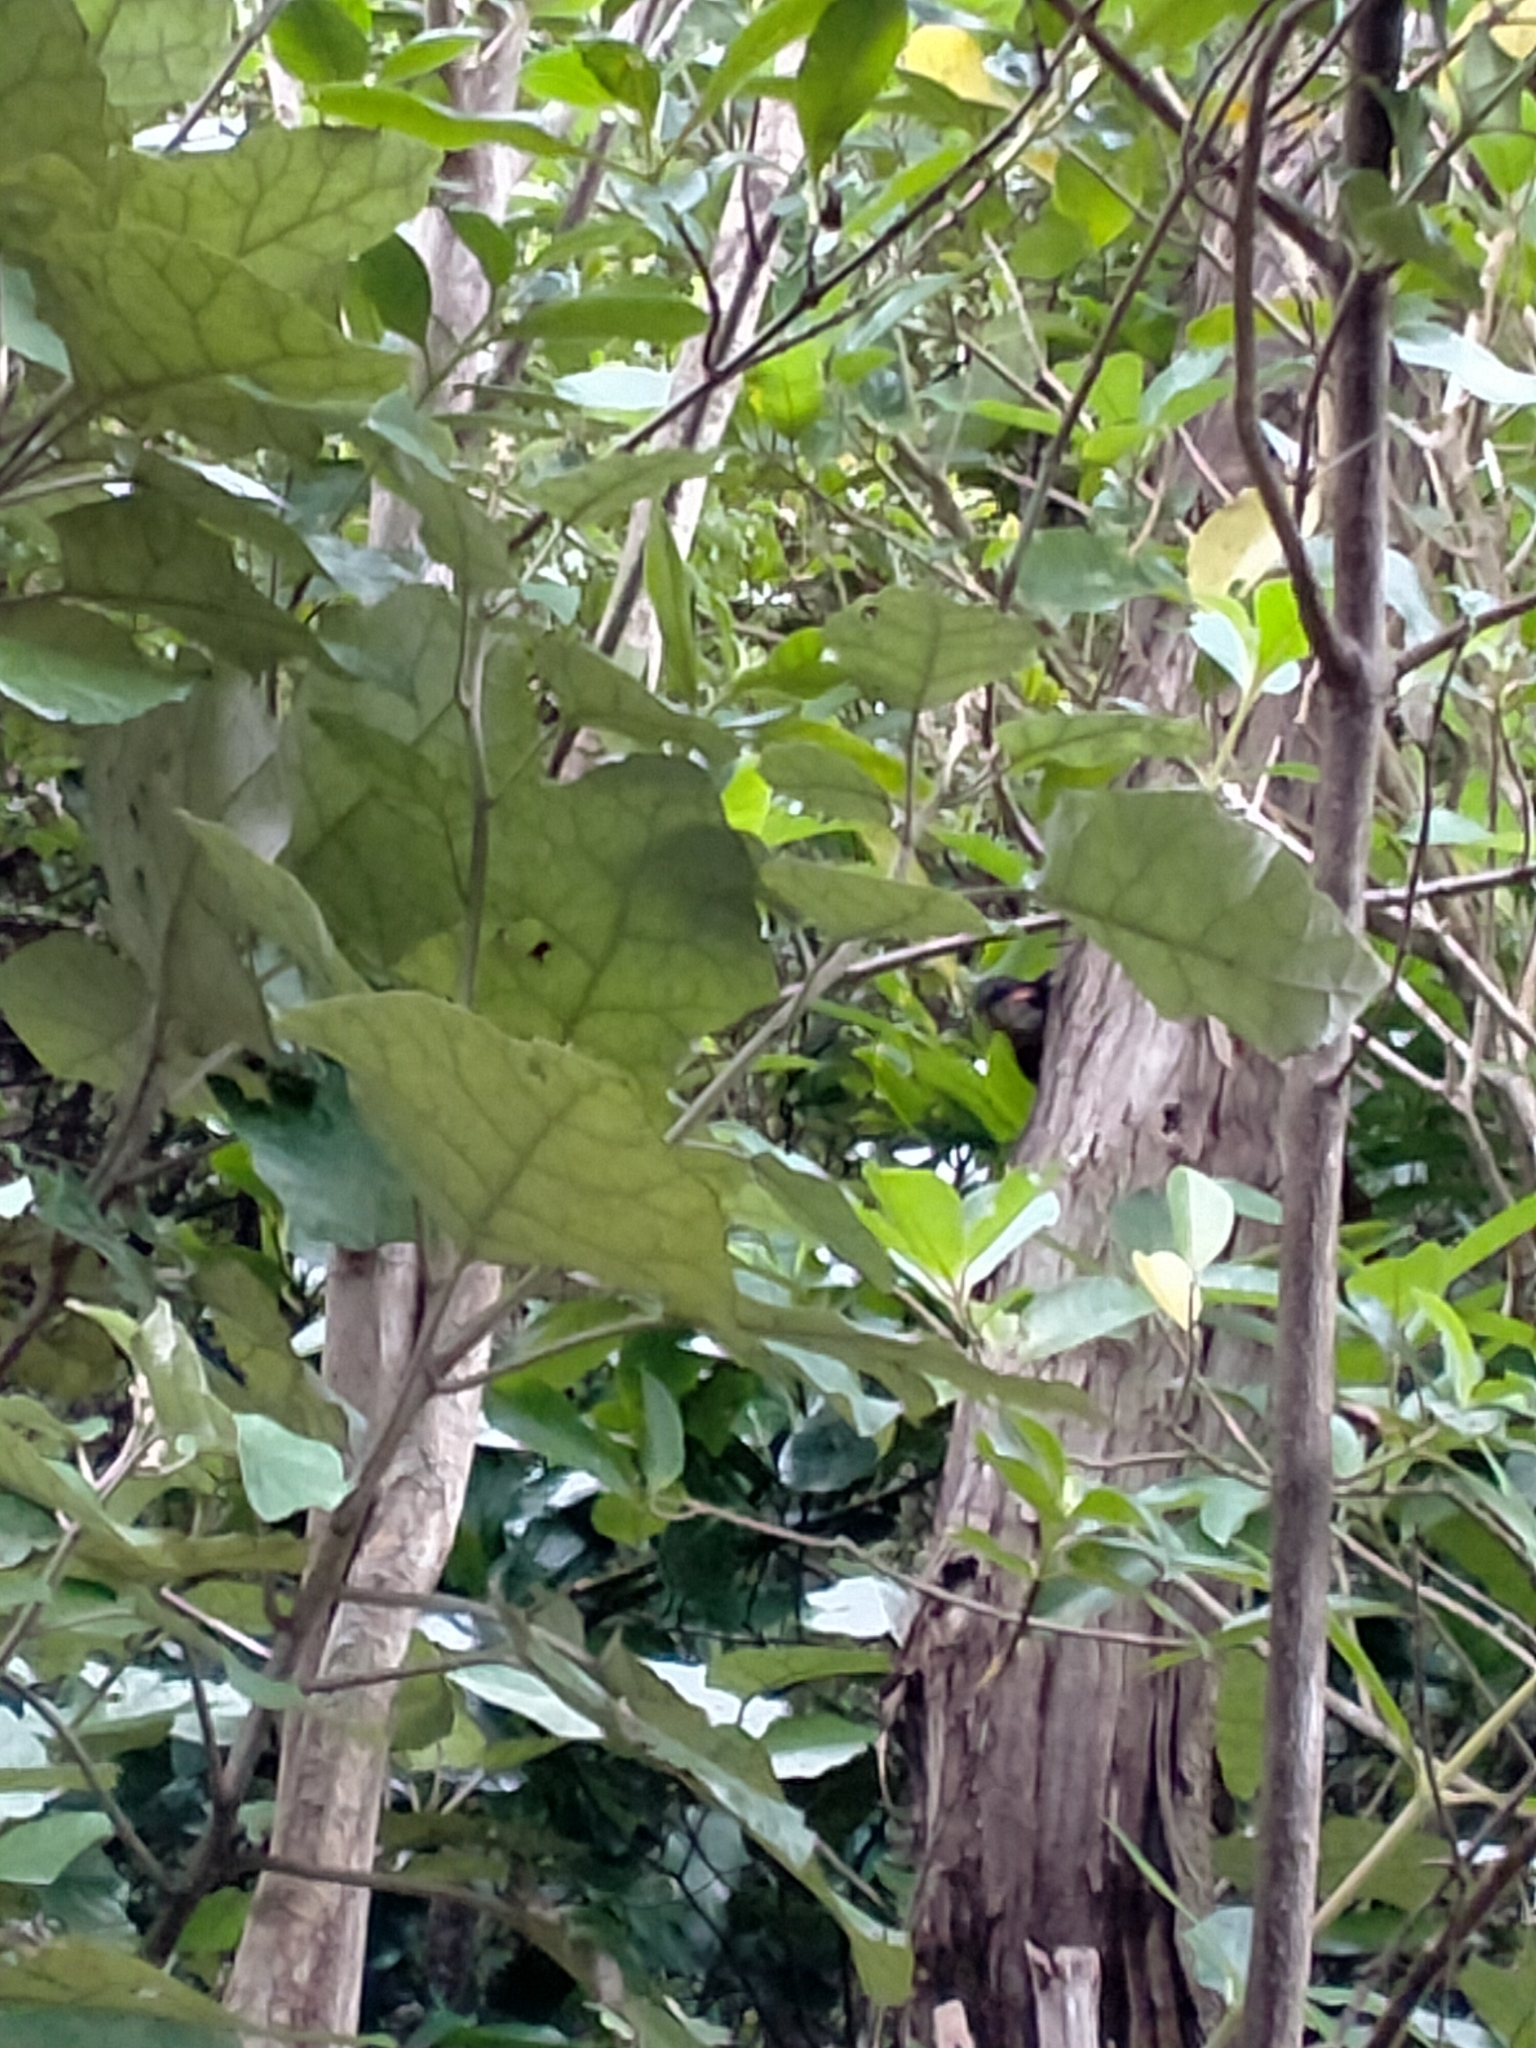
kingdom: Animalia
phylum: Chordata
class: Aves
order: Passeriformes
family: Callaeatidae
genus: Philesturnus
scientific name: Philesturnus carunculatus
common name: South island saddleback
